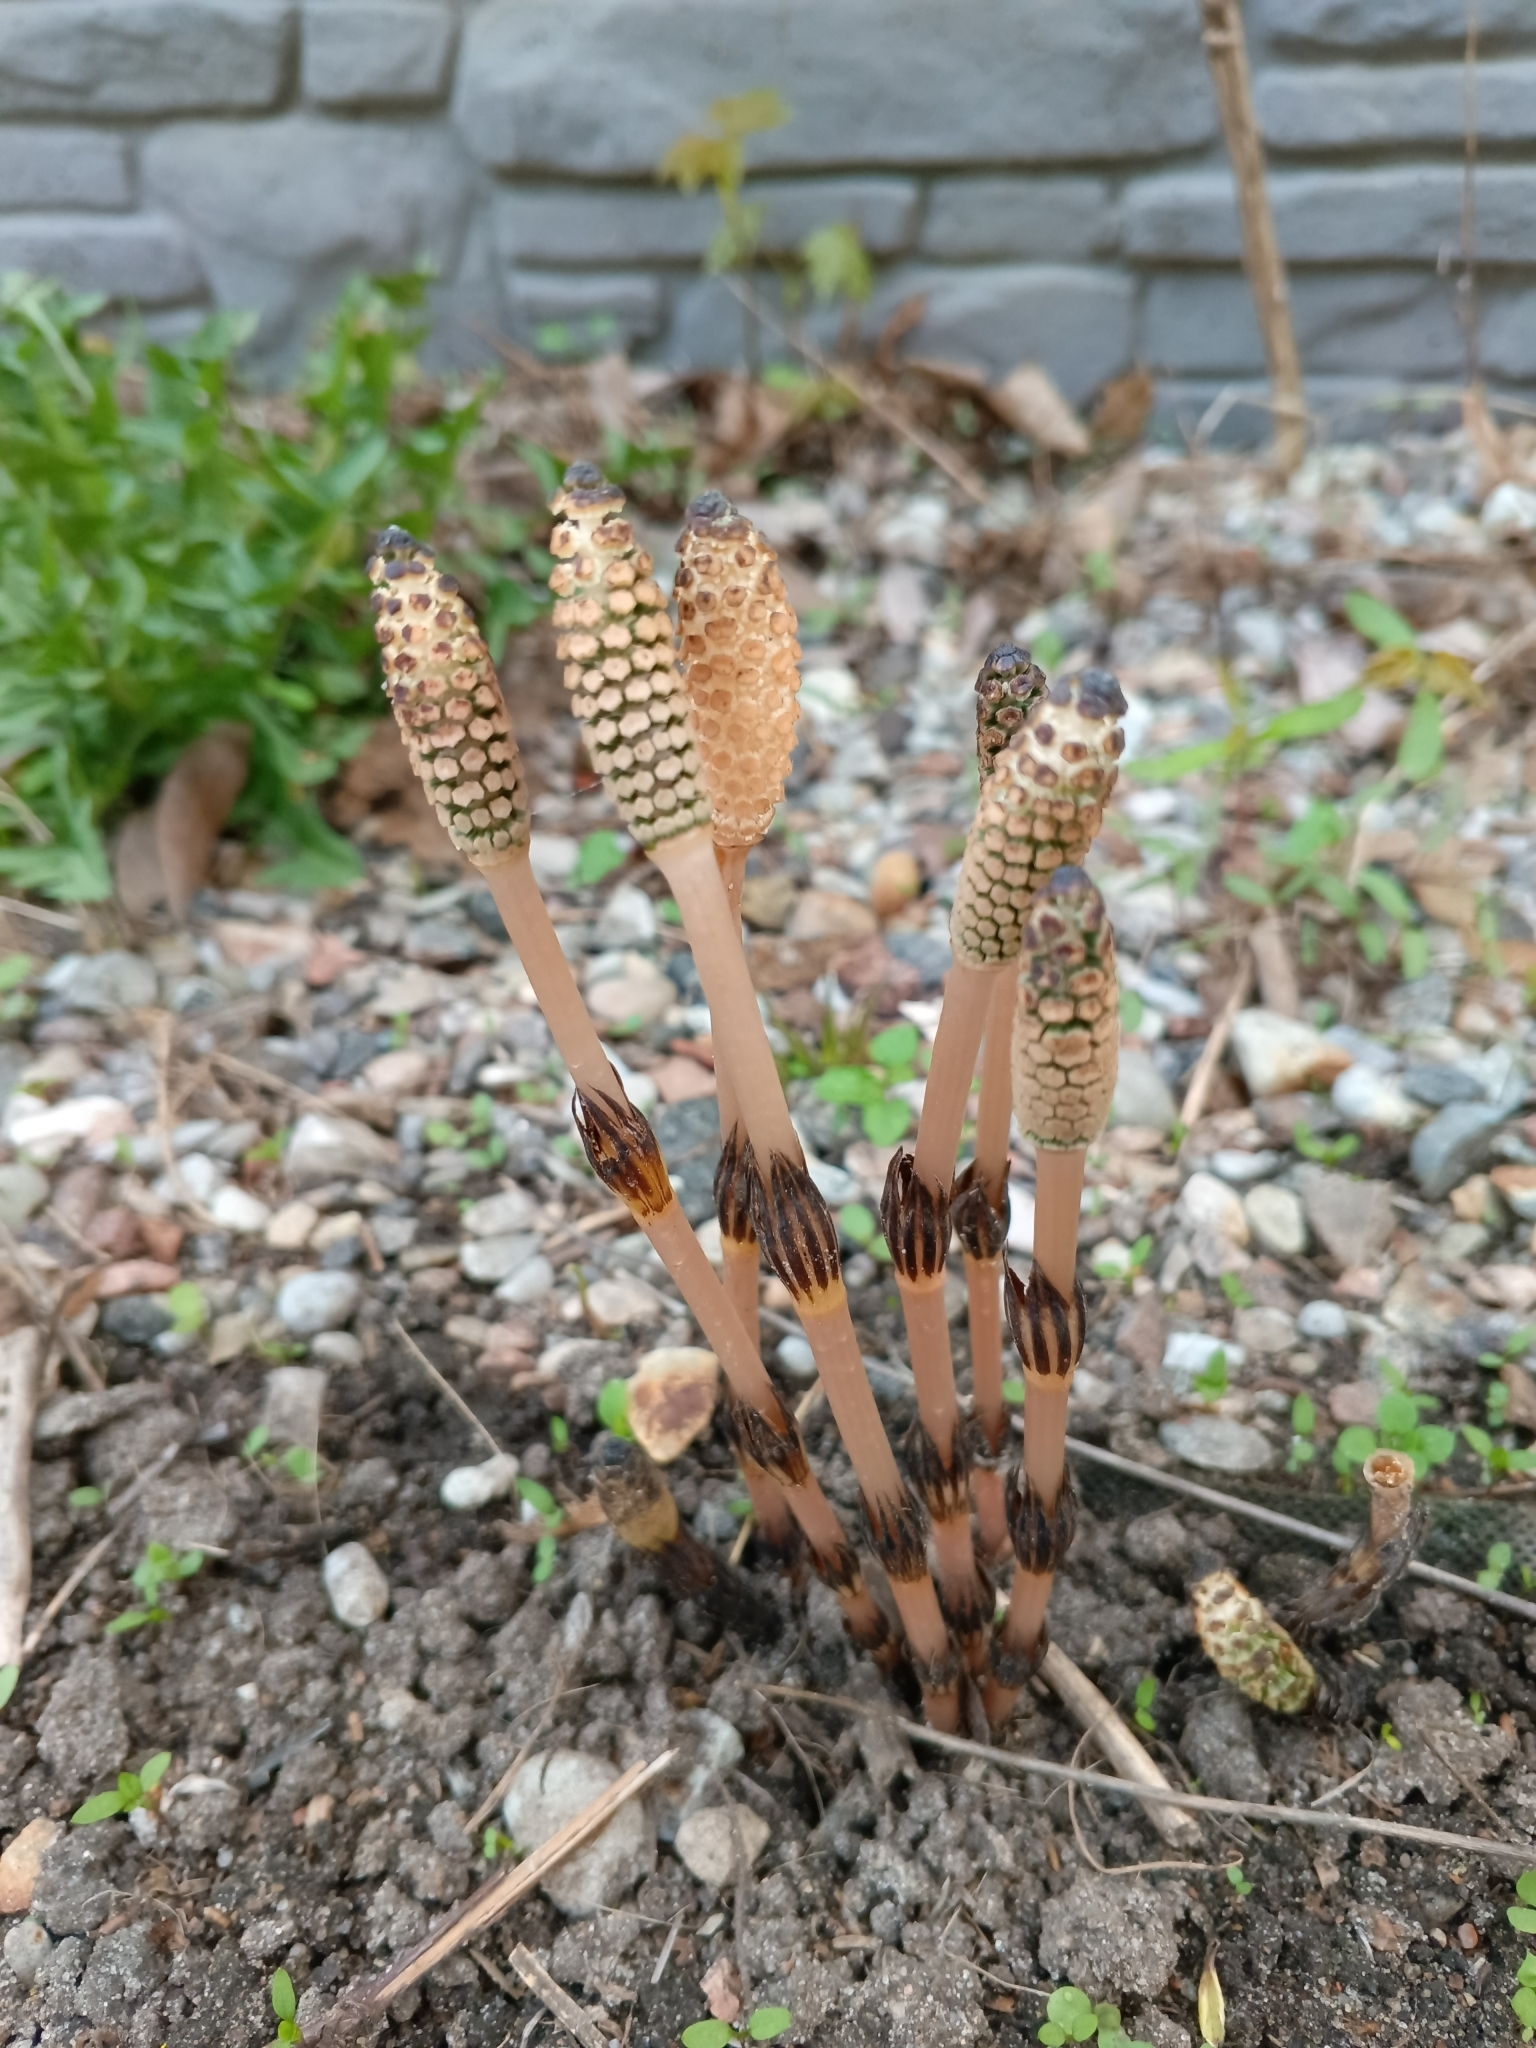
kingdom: Plantae
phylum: Tracheophyta
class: Polypodiopsida
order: Equisetales
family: Equisetaceae
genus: Equisetum
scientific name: Equisetum arvense
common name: Field horsetail
